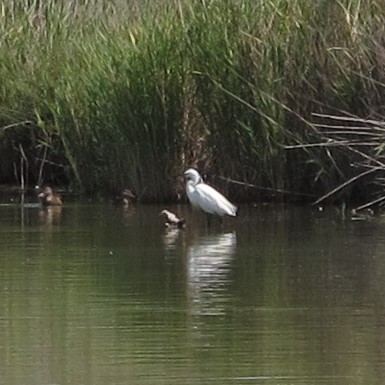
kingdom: Animalia
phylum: Chordata
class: Aves
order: Pelecaniformes
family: Ardeidae
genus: Egretta
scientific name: Egretta garzetta
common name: Little egret
